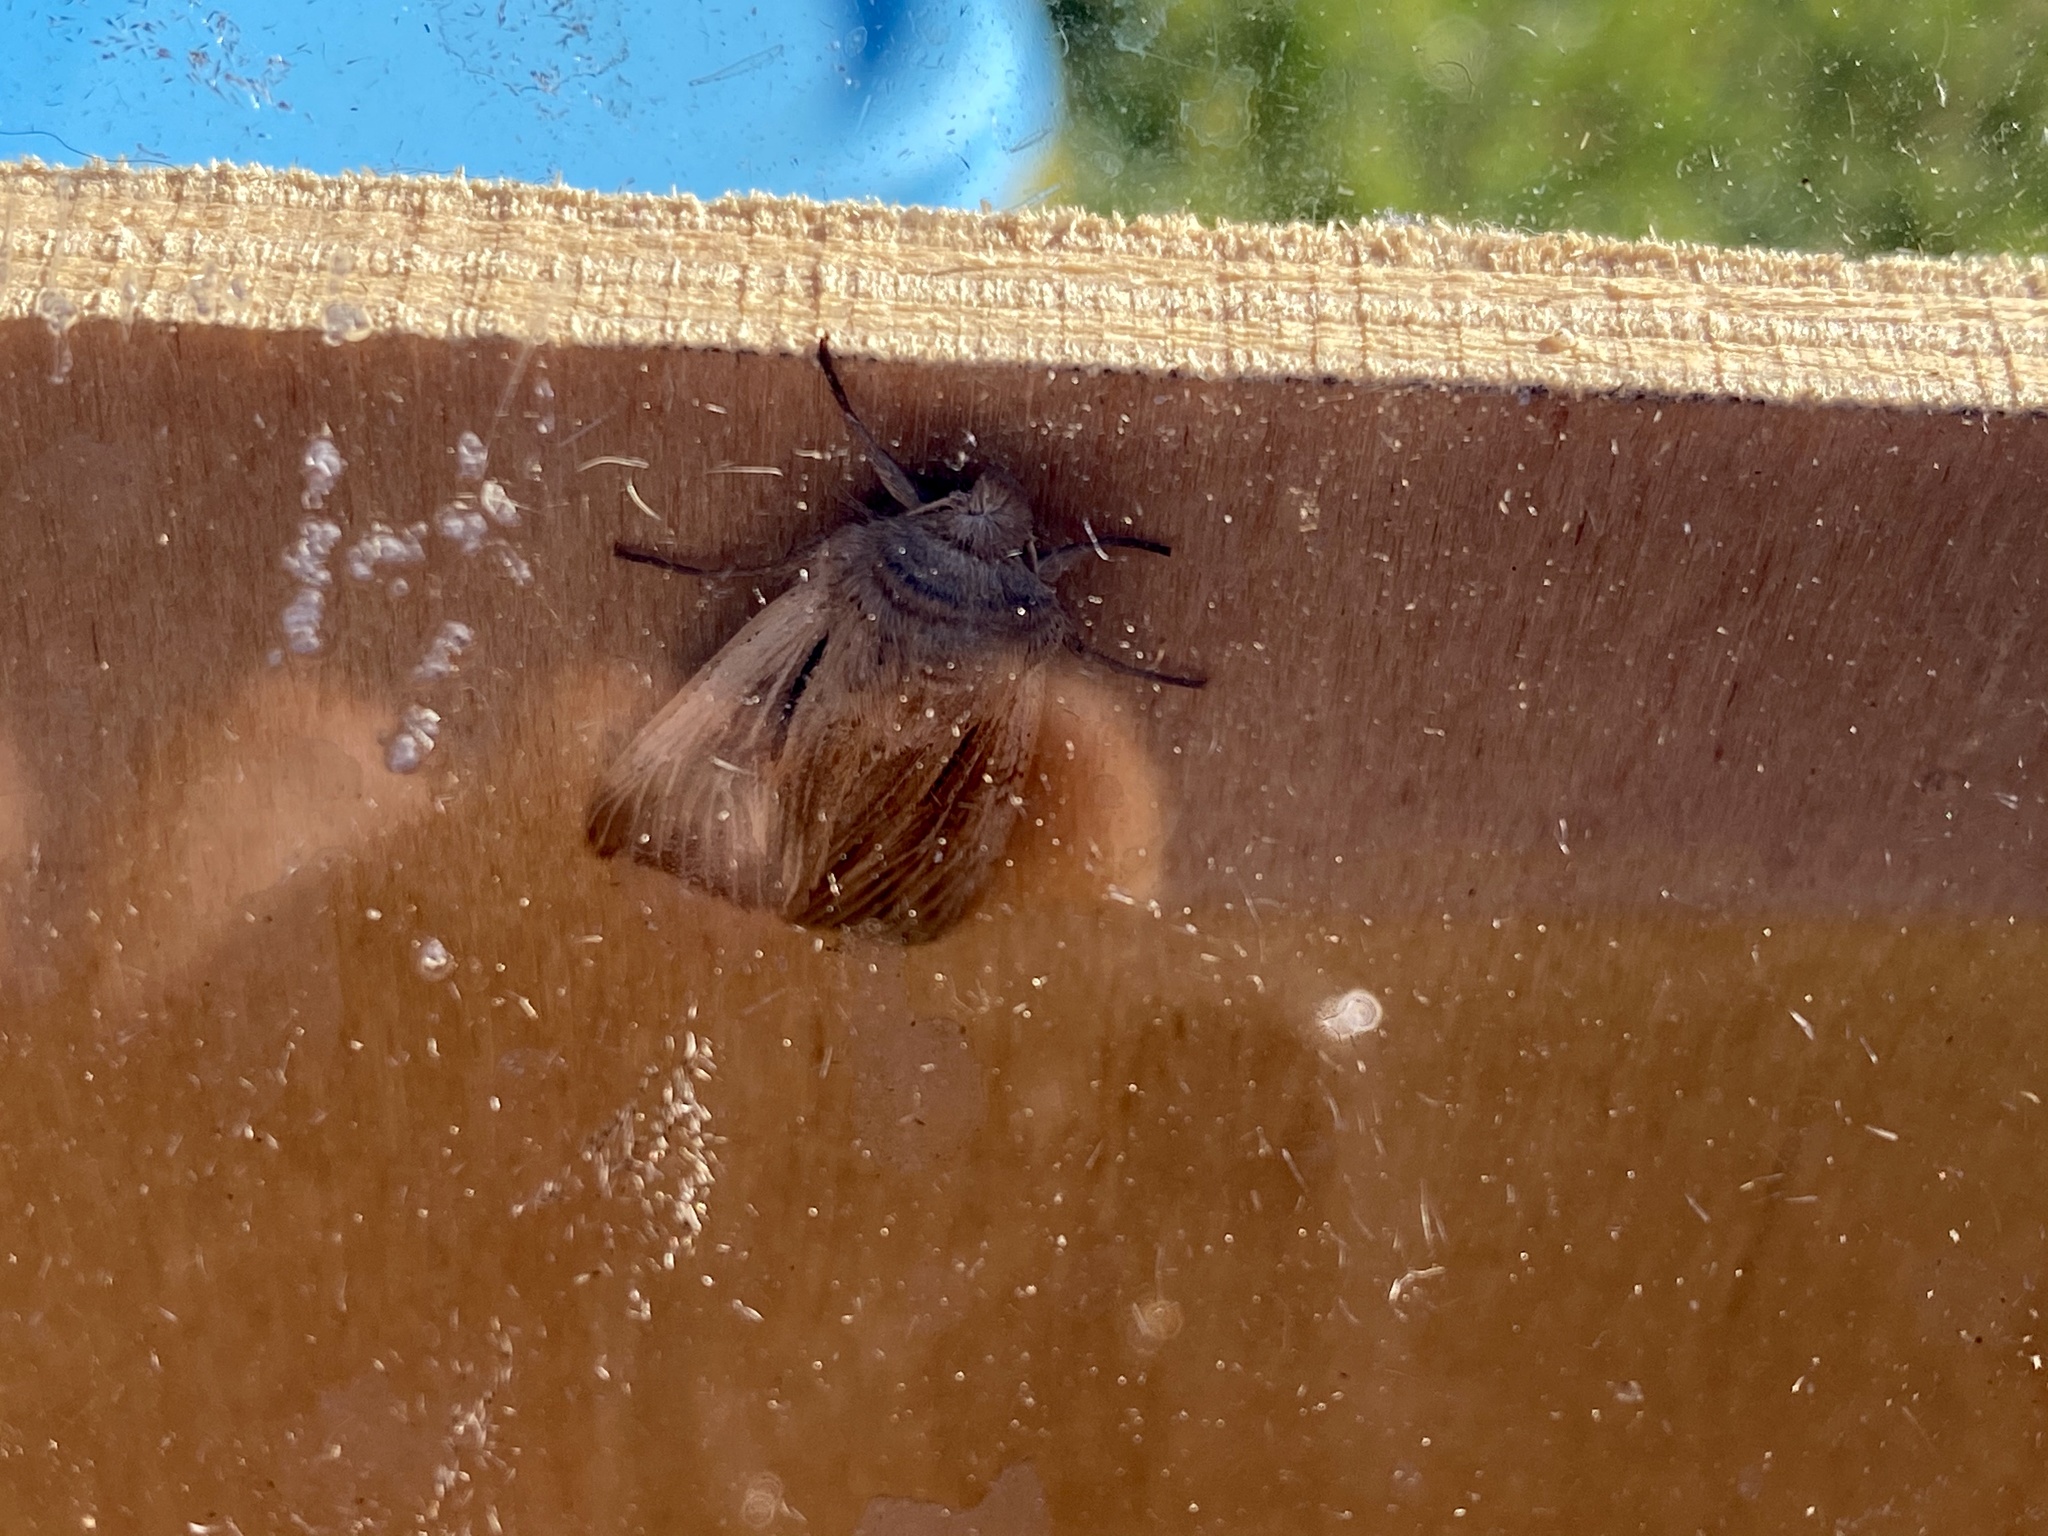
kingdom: Animalia
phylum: Arthropoda
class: Insecta
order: Lepidoptera
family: Noctuidae
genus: Leucania
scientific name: Leucania comma
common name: Shoulder-striped wainscot
